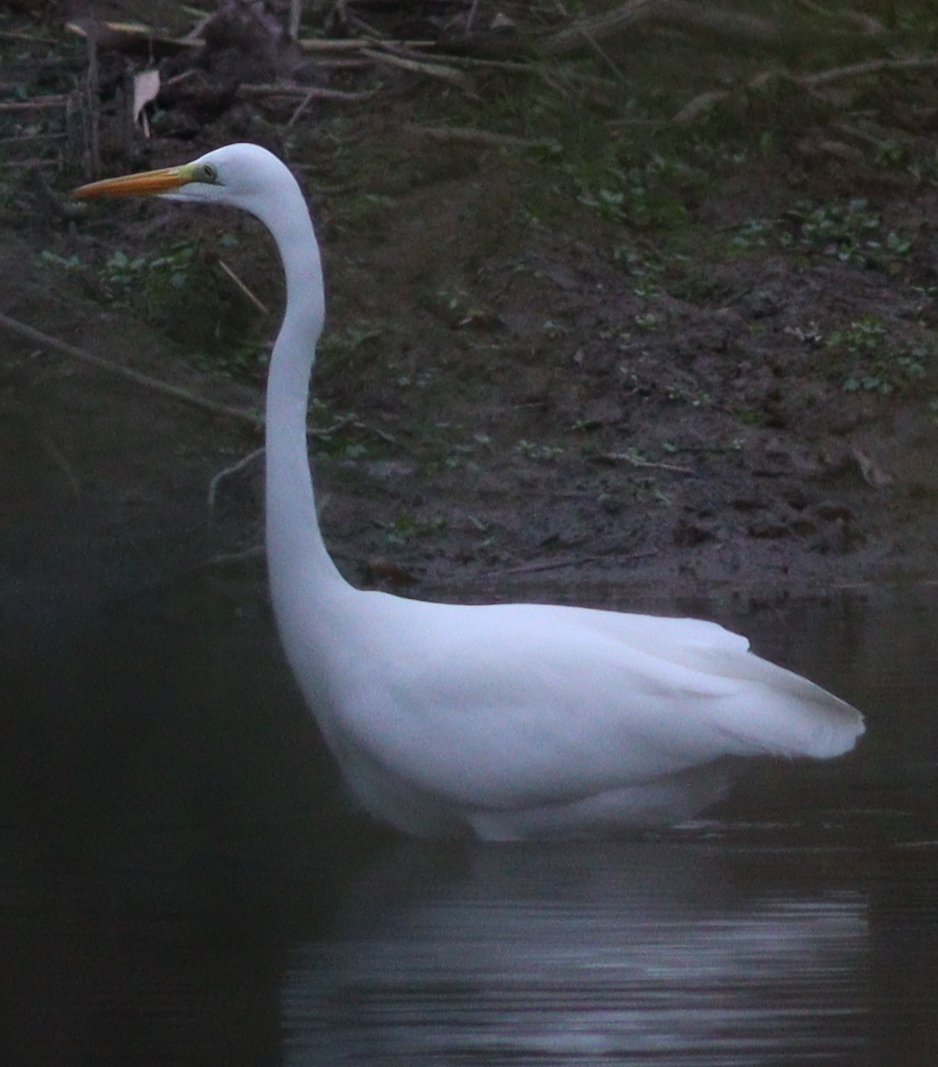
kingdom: Animalia
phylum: Chordata
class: Aves
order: Pelecaniformes
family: Ardeidae
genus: Ardea
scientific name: Ardea alba
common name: Great egret
